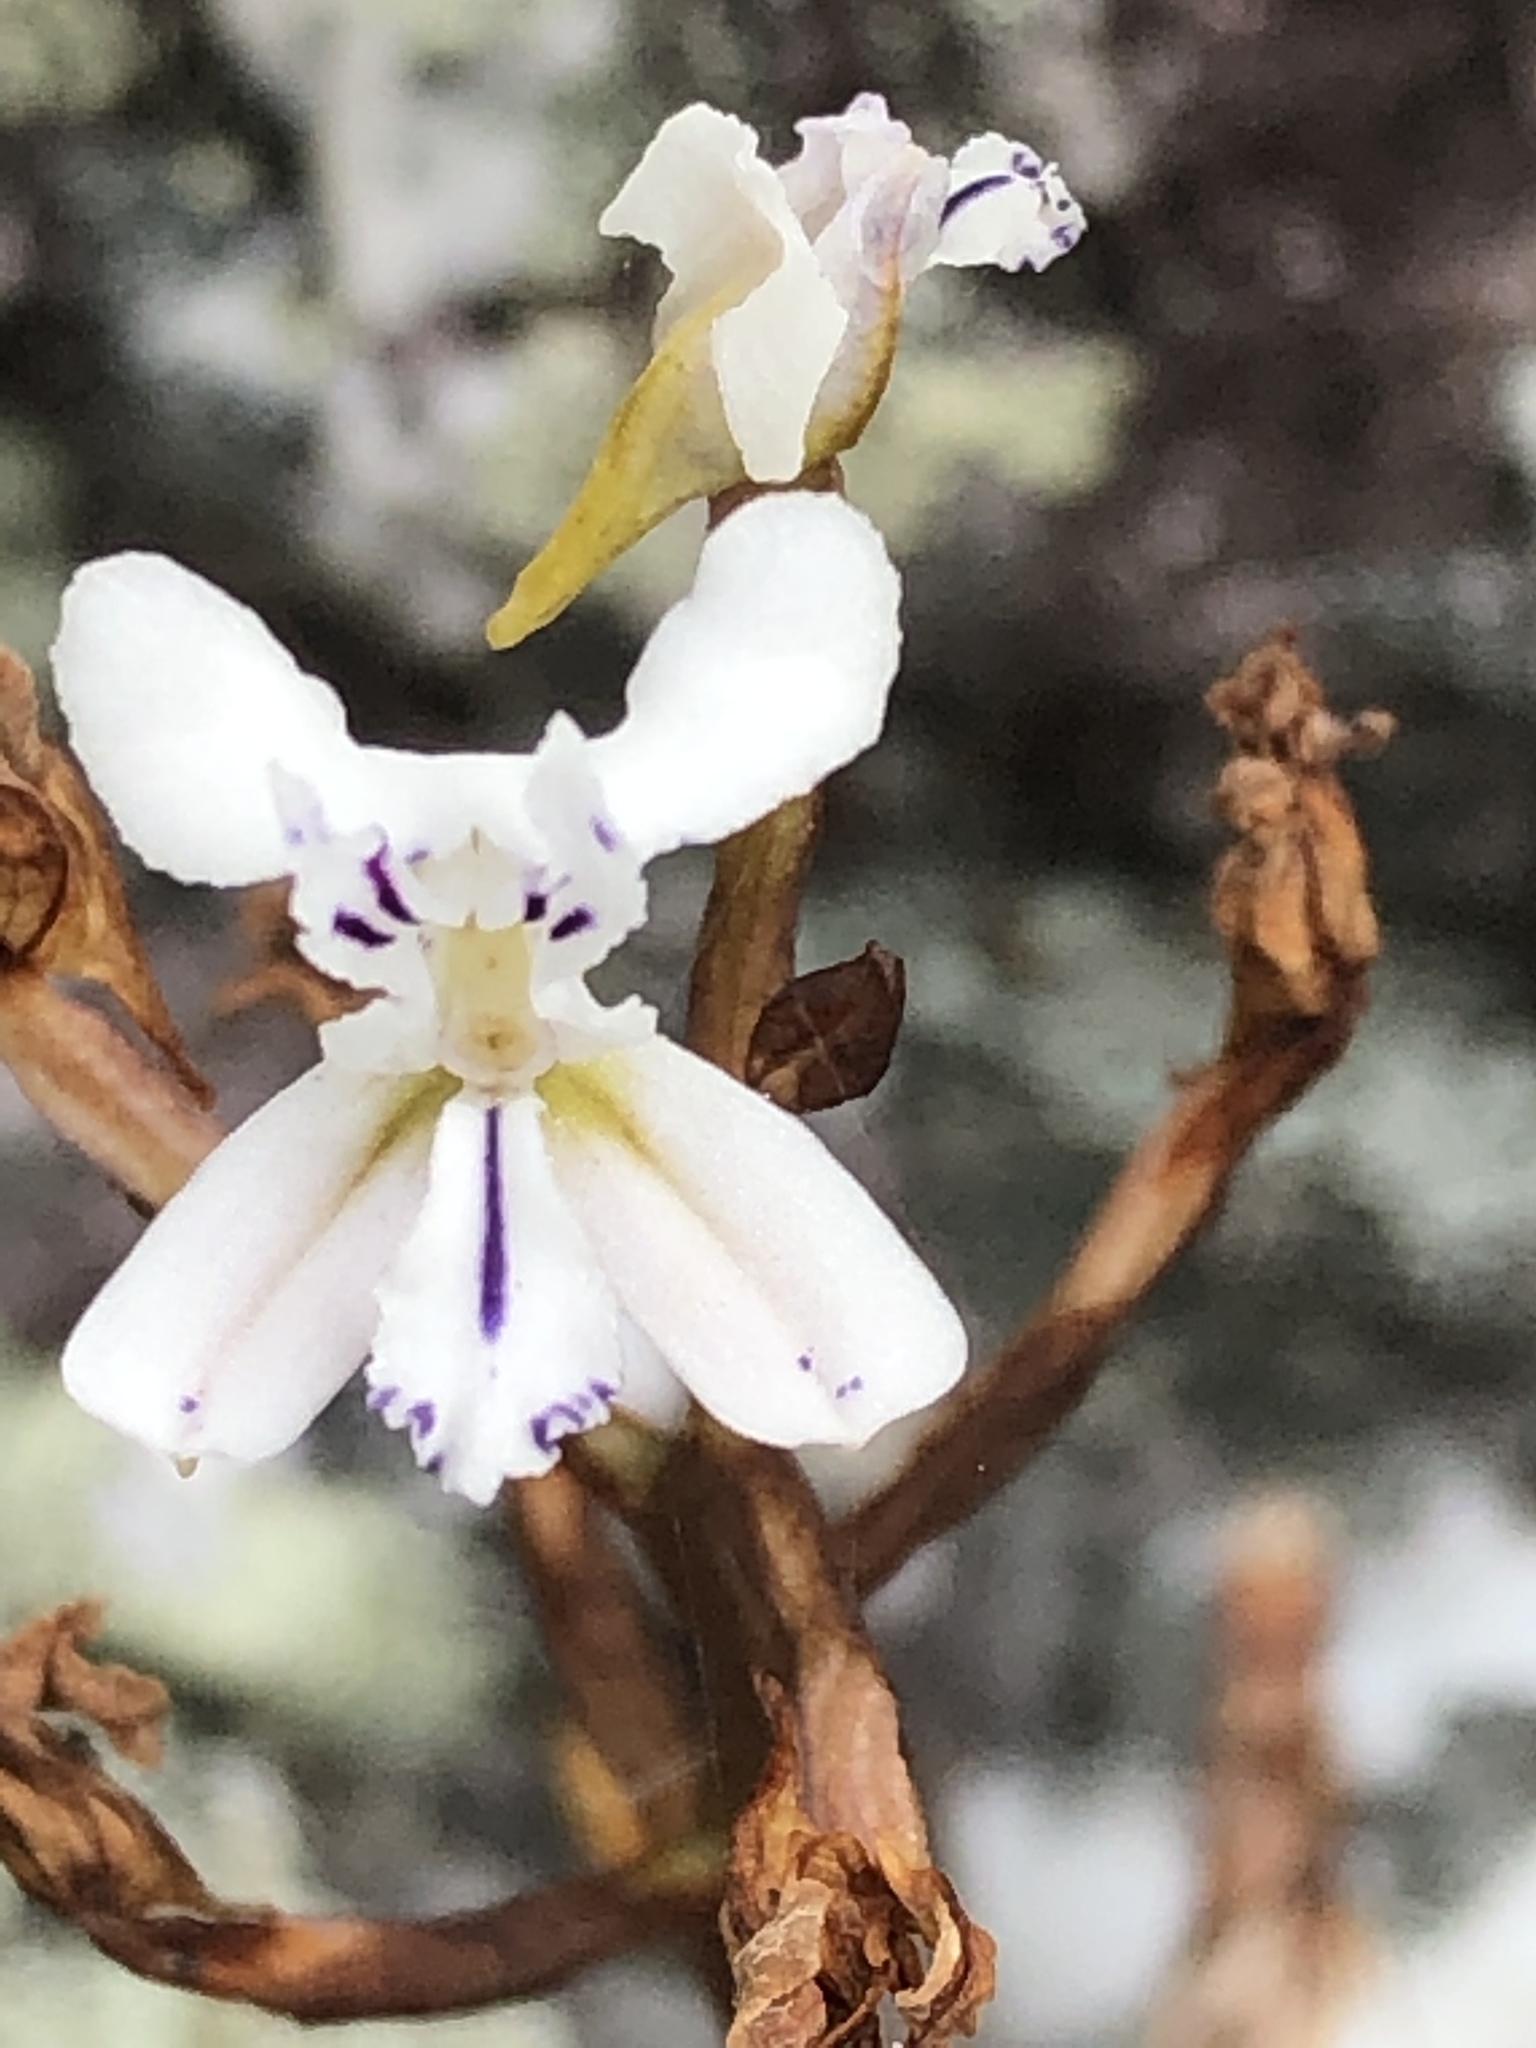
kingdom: Plantae
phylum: Tracheophyta
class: Liliopsida
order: Asparagales
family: Orchidaceae
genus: Disa
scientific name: Disa sagittalis
